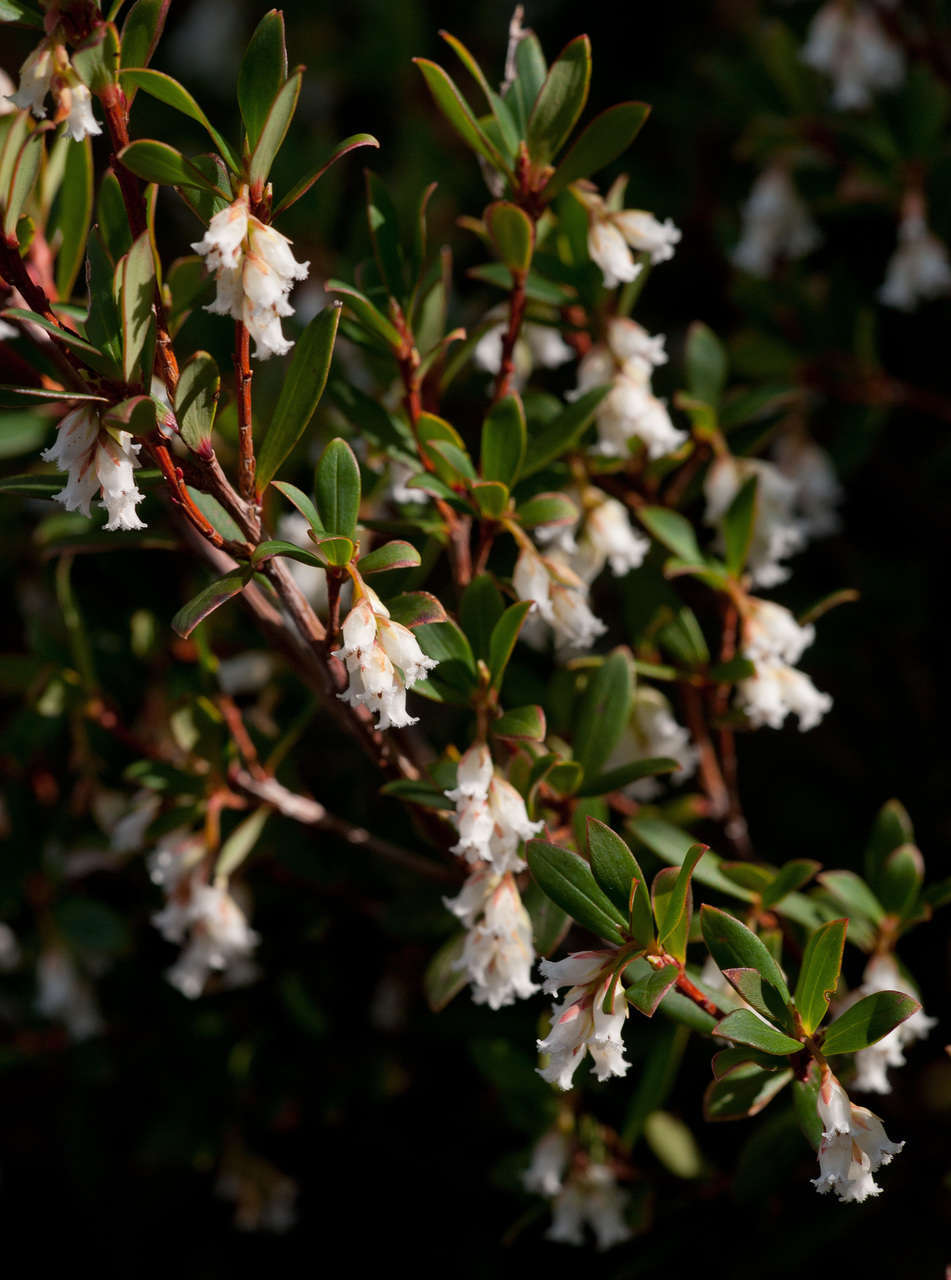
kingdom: Plantae
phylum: Tracheophyta
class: Magnoliopsida
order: Ericales
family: Ericaceae
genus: Leucopogon
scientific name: Leucopogon gelidus
